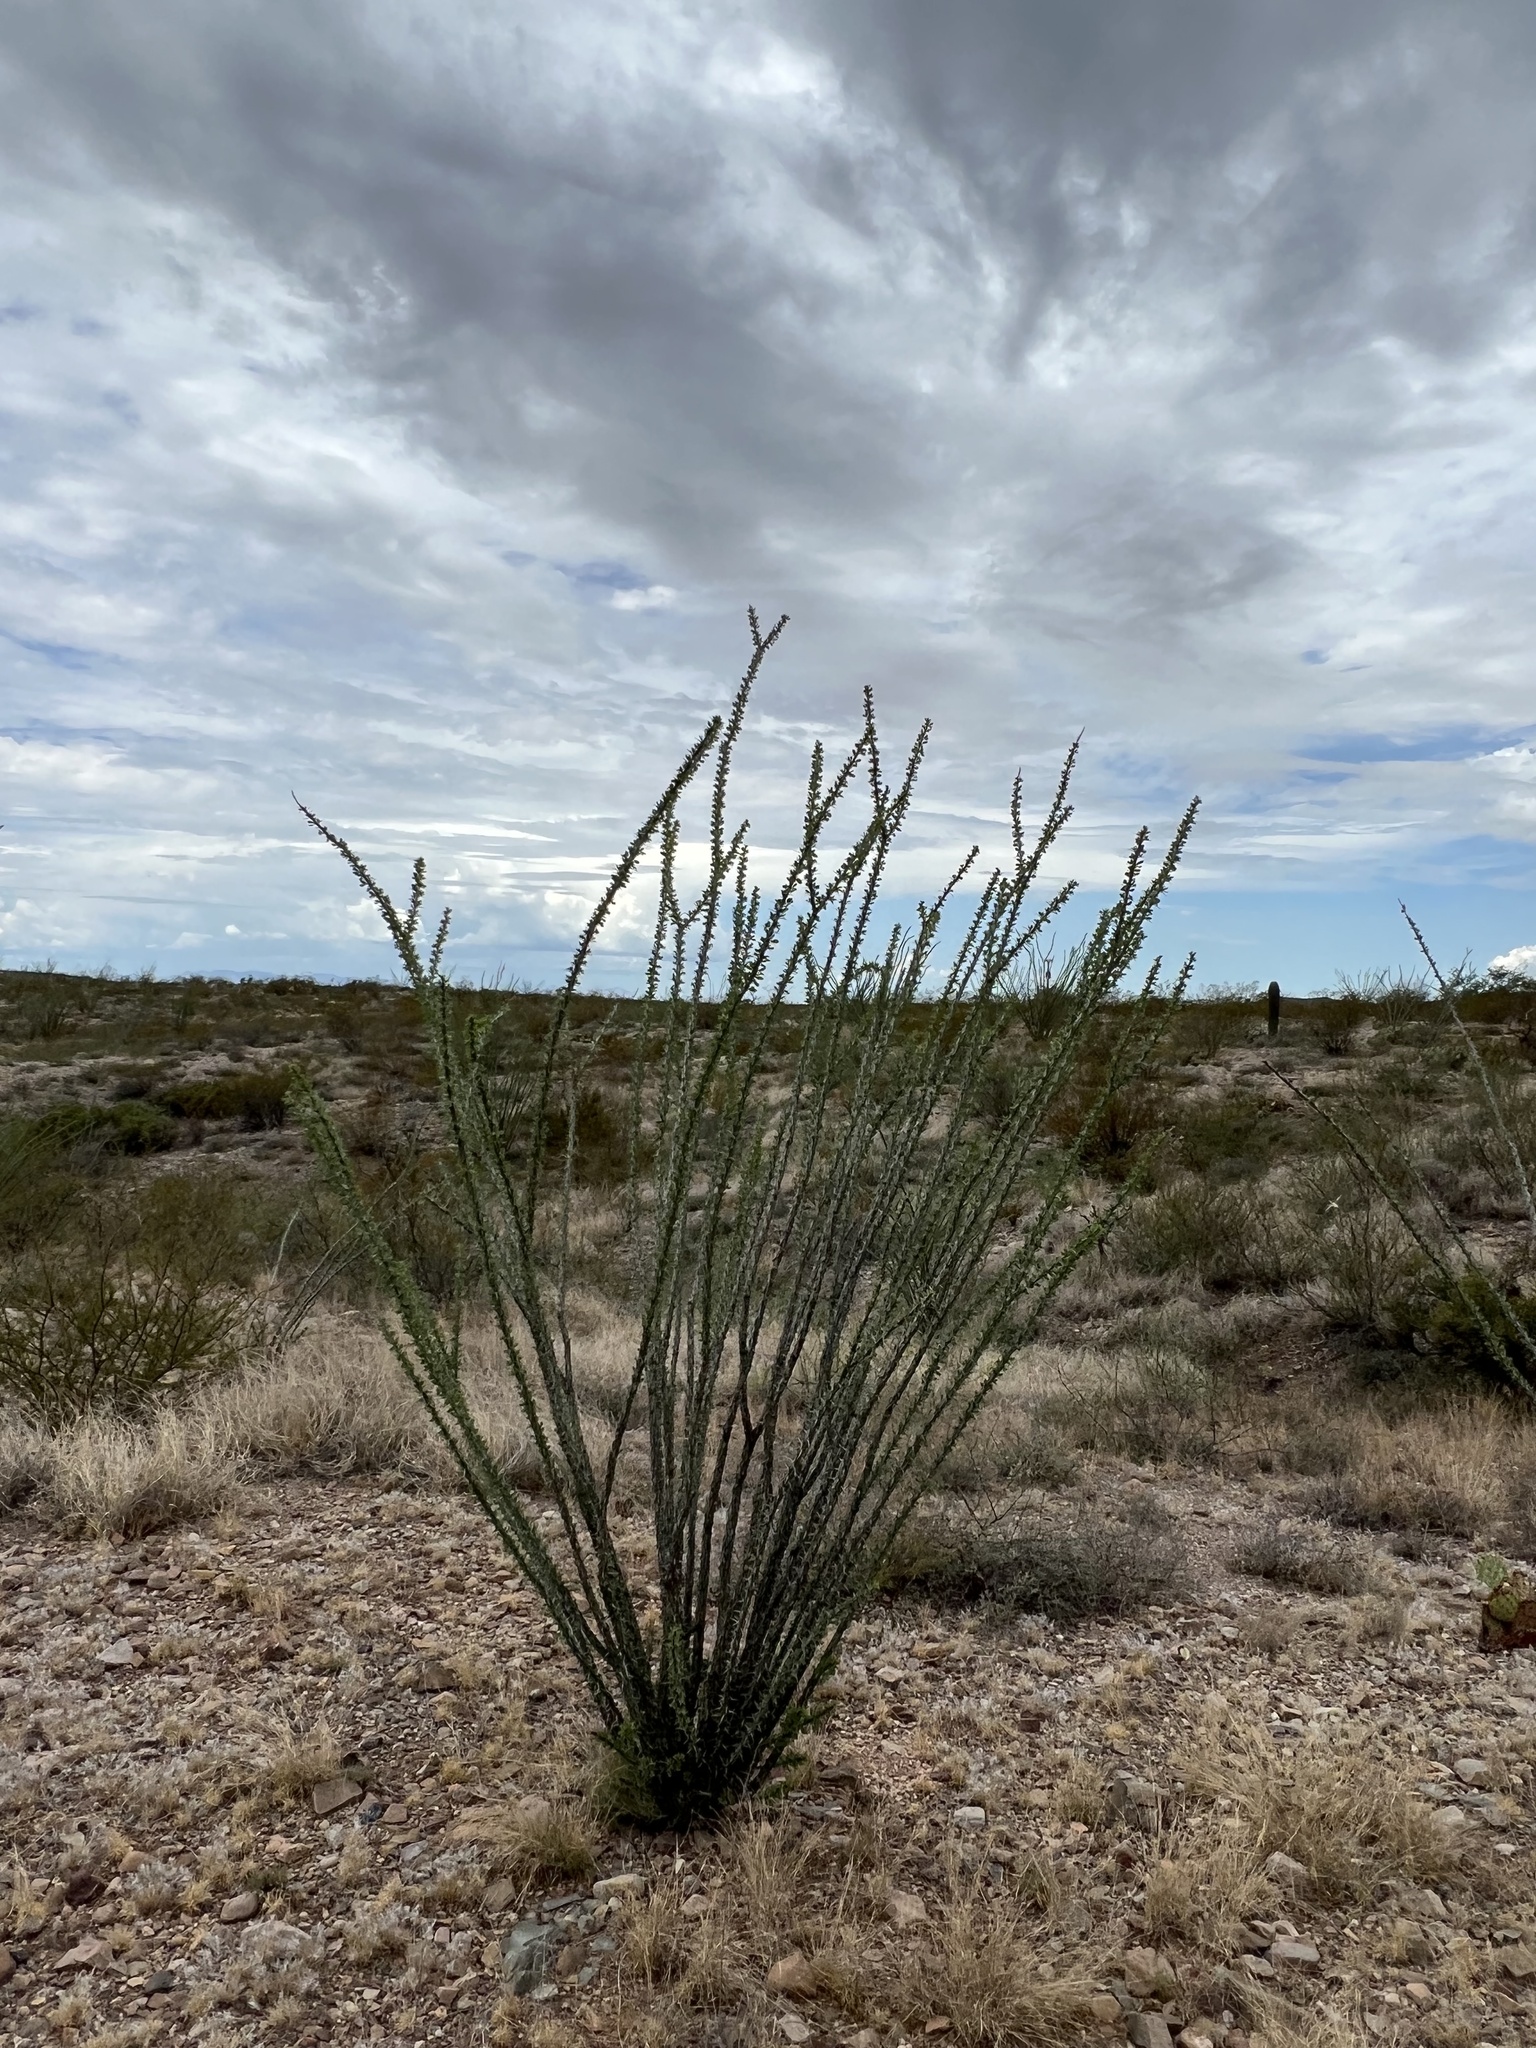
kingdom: Plantae
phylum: Tracheophyta
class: Magnoliopsida
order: Ericales
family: Fouquieriaceae
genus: Fouquieria
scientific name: Fouquieria splendens
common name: Vine-cactus
